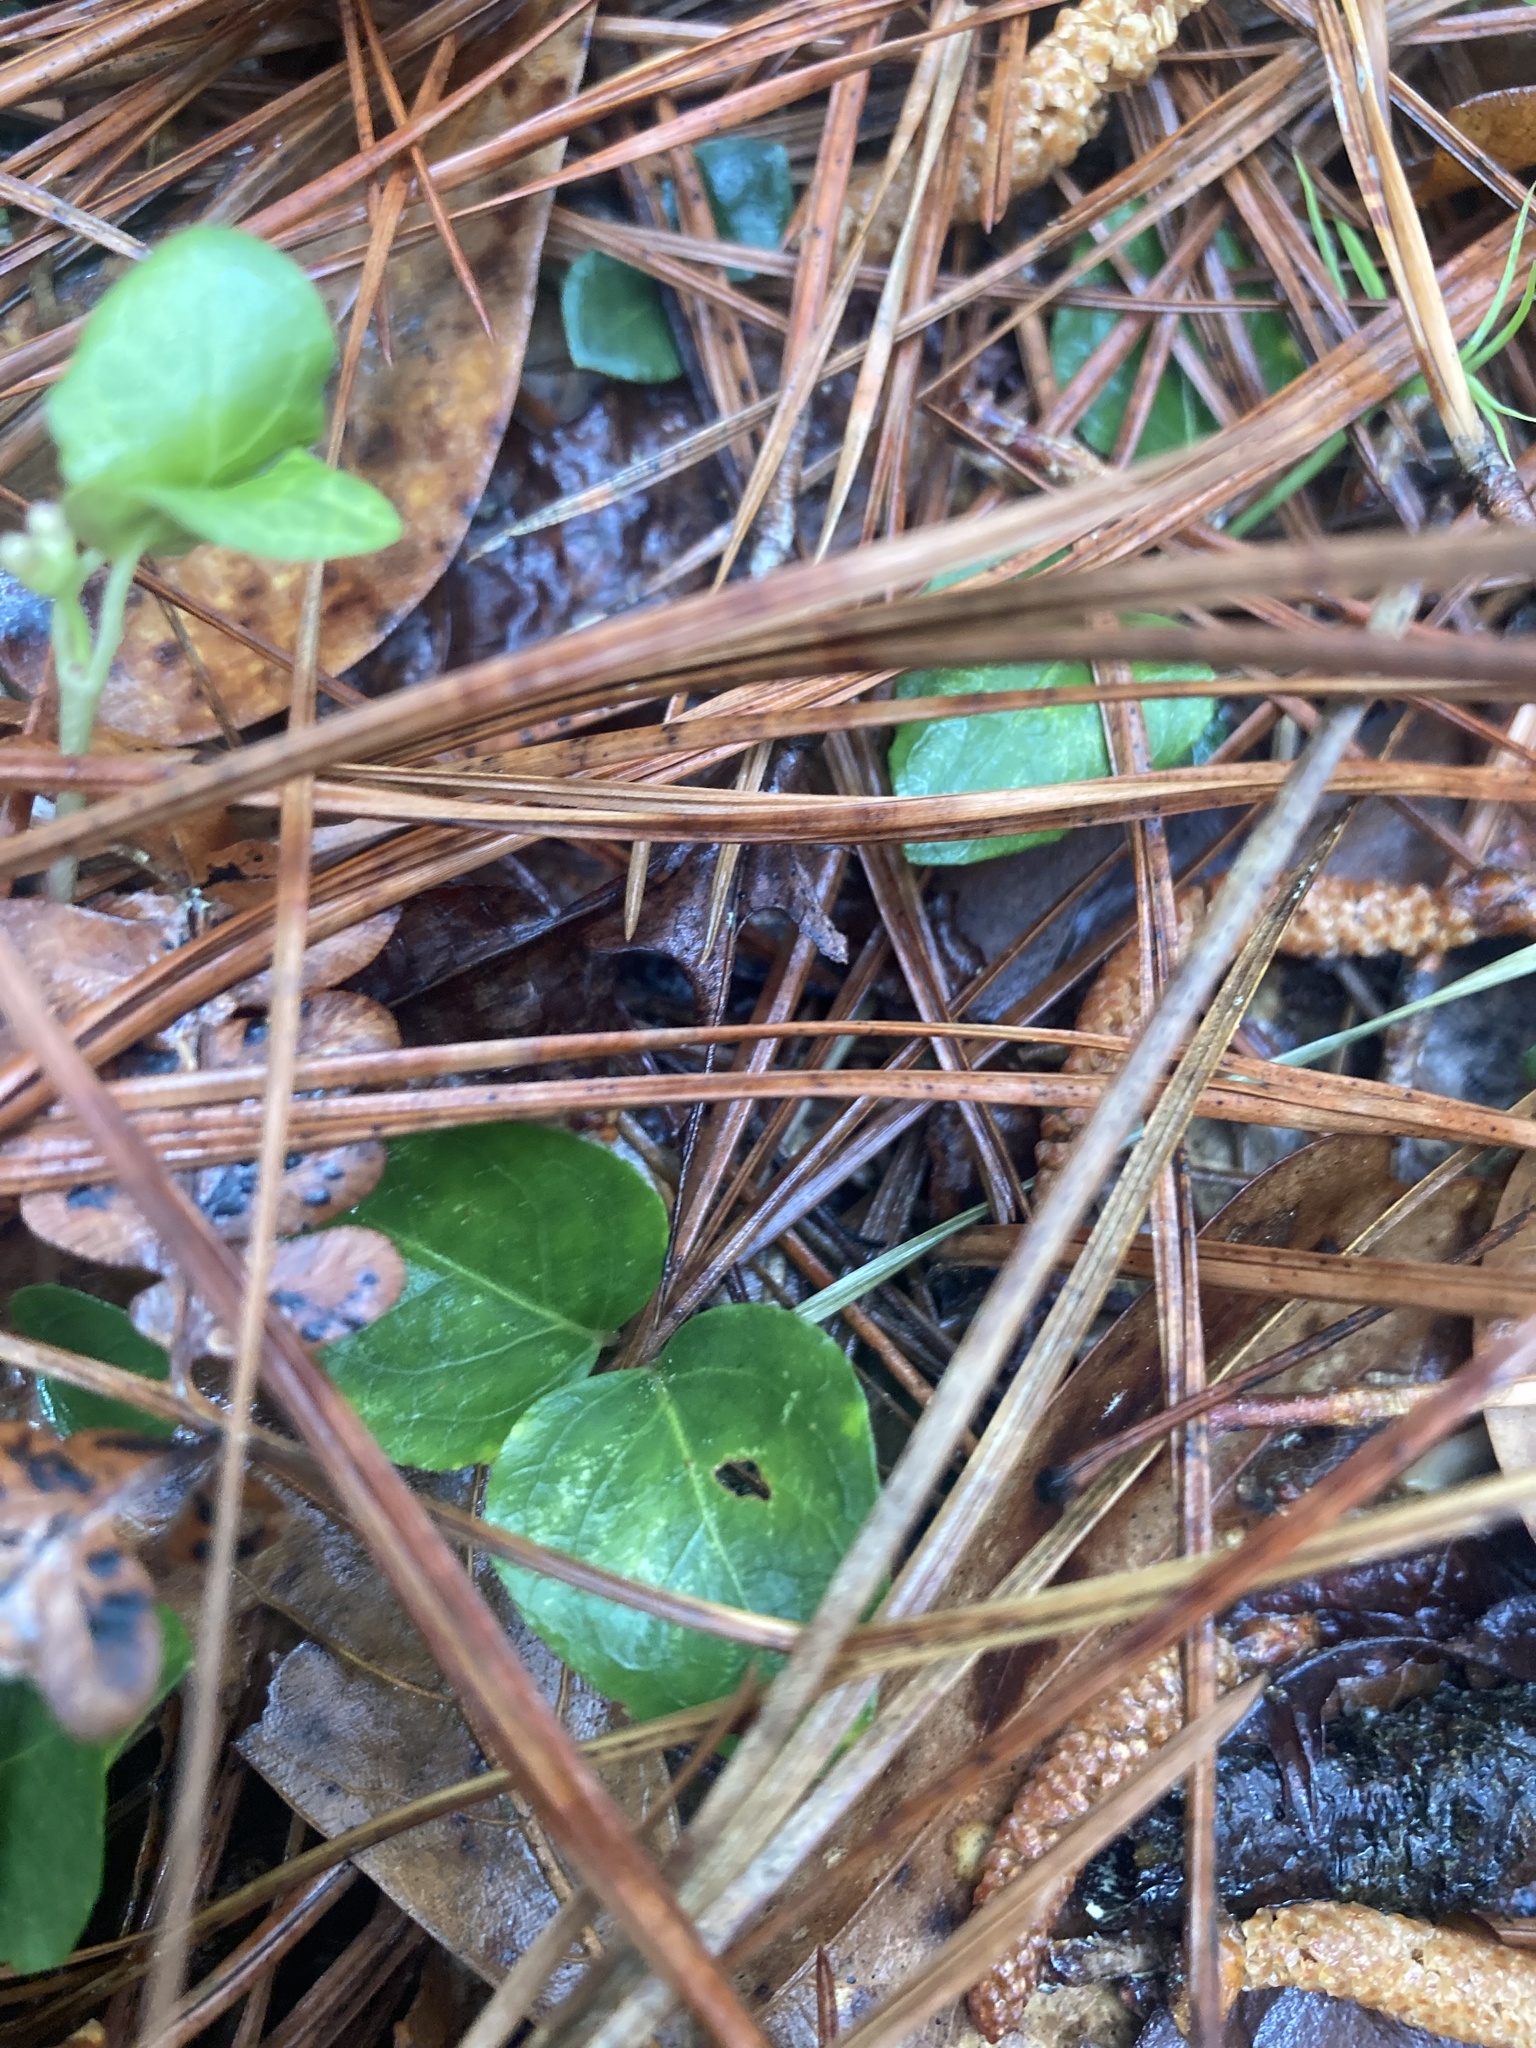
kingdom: Plantae
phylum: Tracheophyta
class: Magnoliopsida
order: Gentianales
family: Rubiaceae
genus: Mitchella
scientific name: Mitchella repens
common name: Partridge-berry
